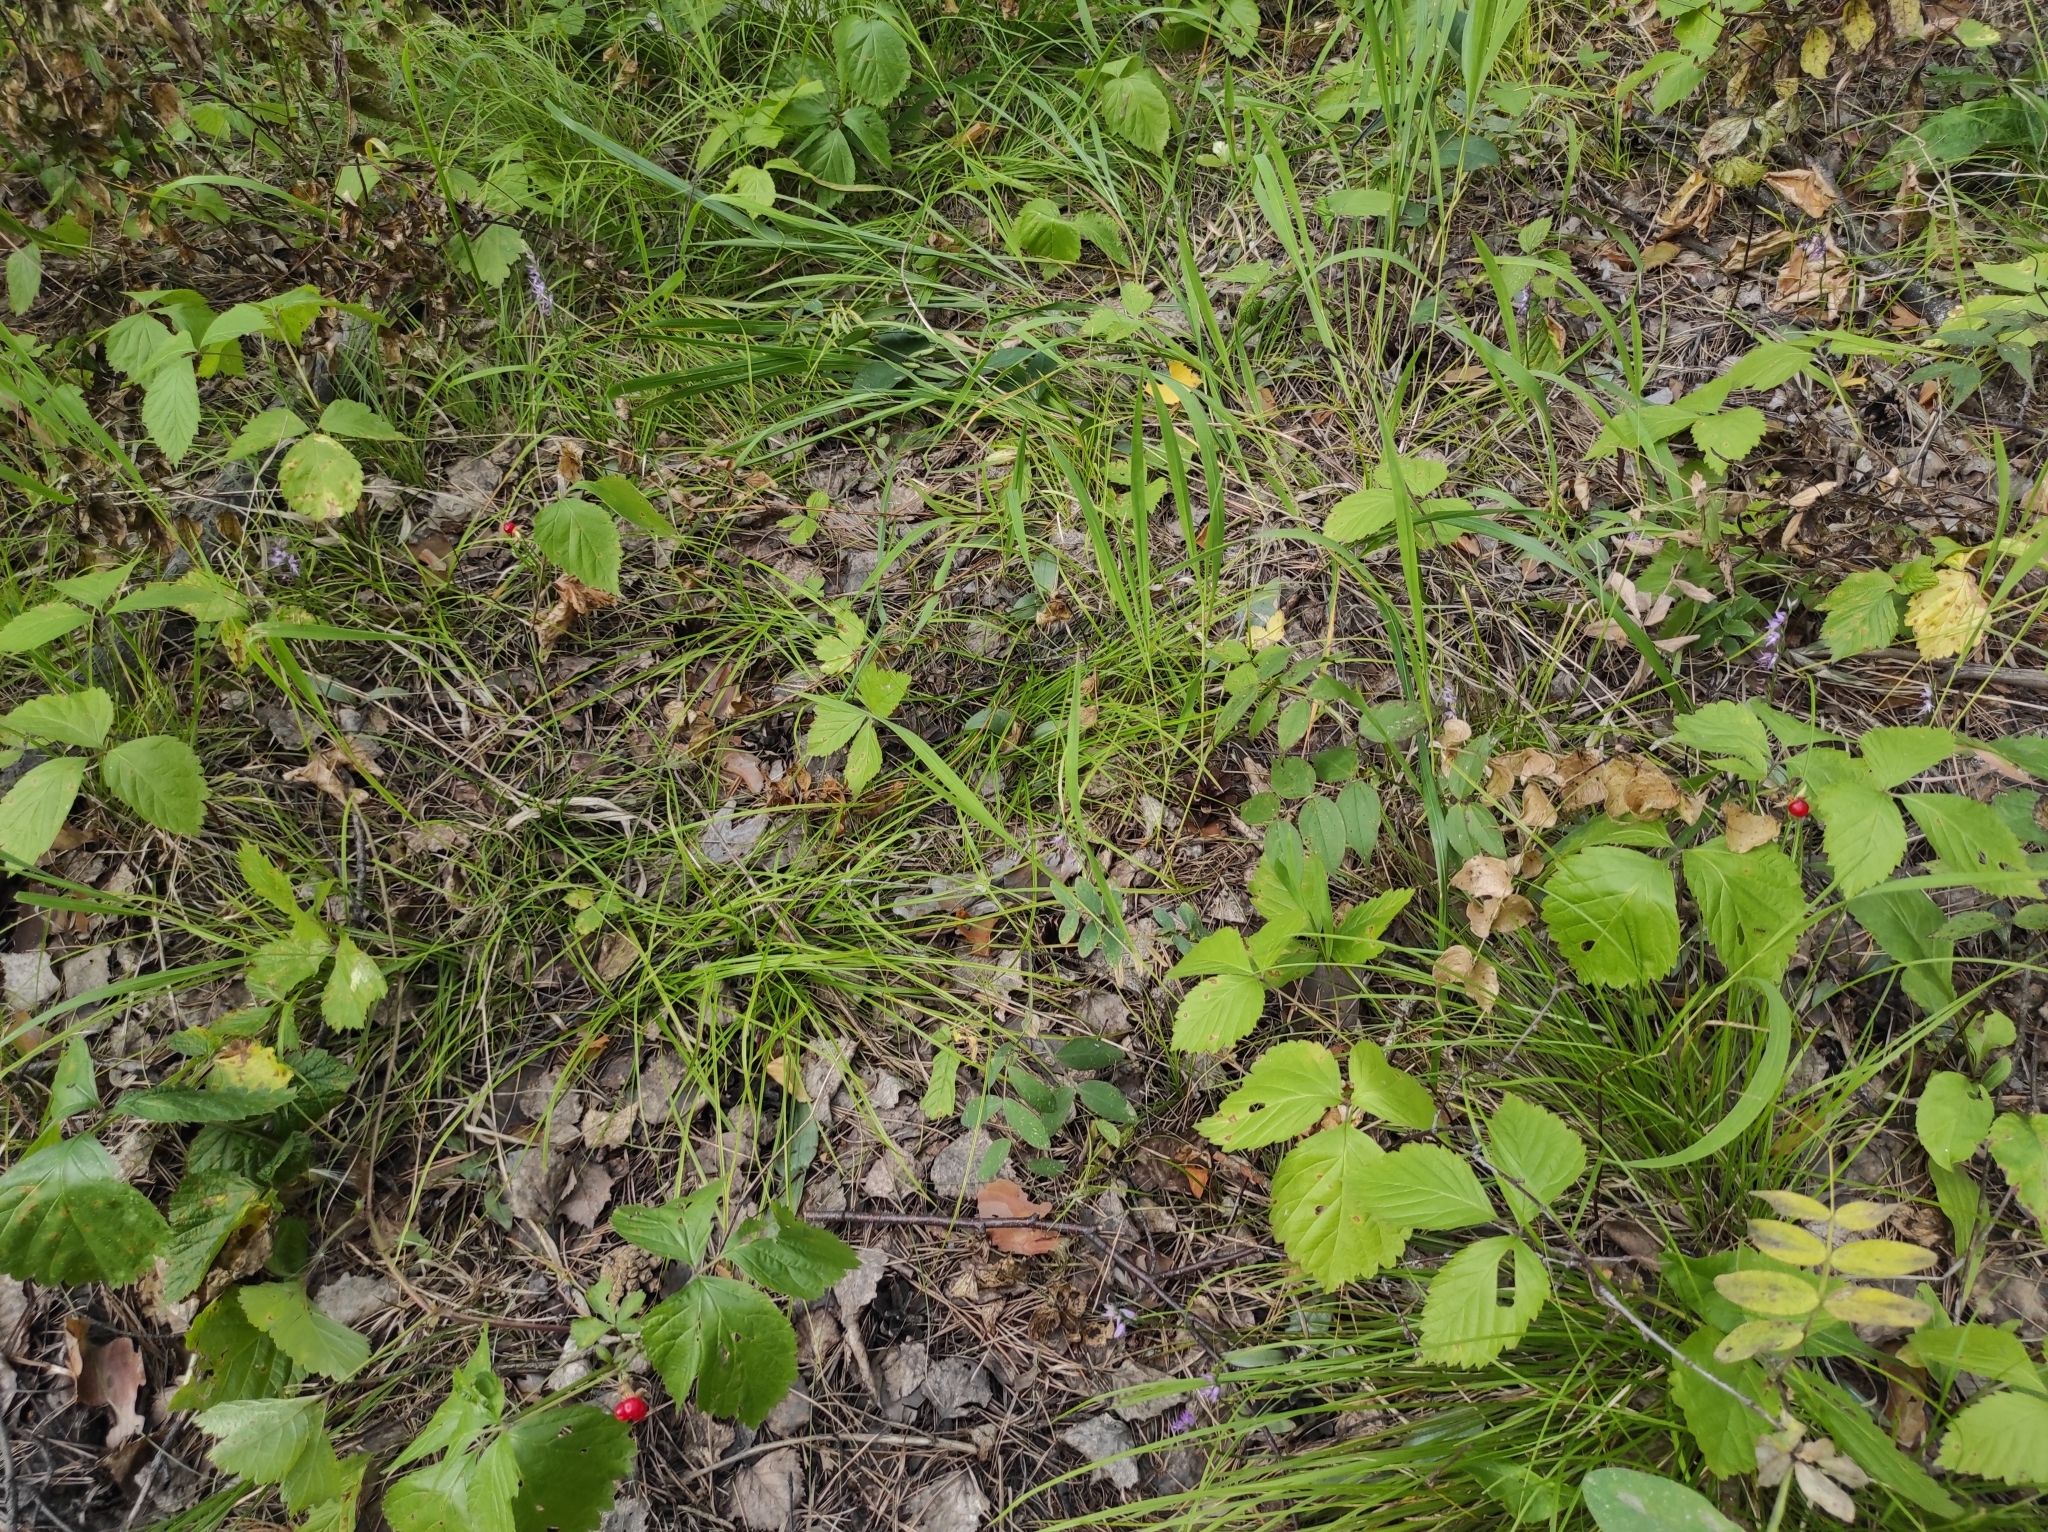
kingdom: Plantae
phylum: Tracheophyta
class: Liliopsida
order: Asparagales
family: Orchidaceae
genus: Hemipilia
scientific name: Hemipilia cucullata
